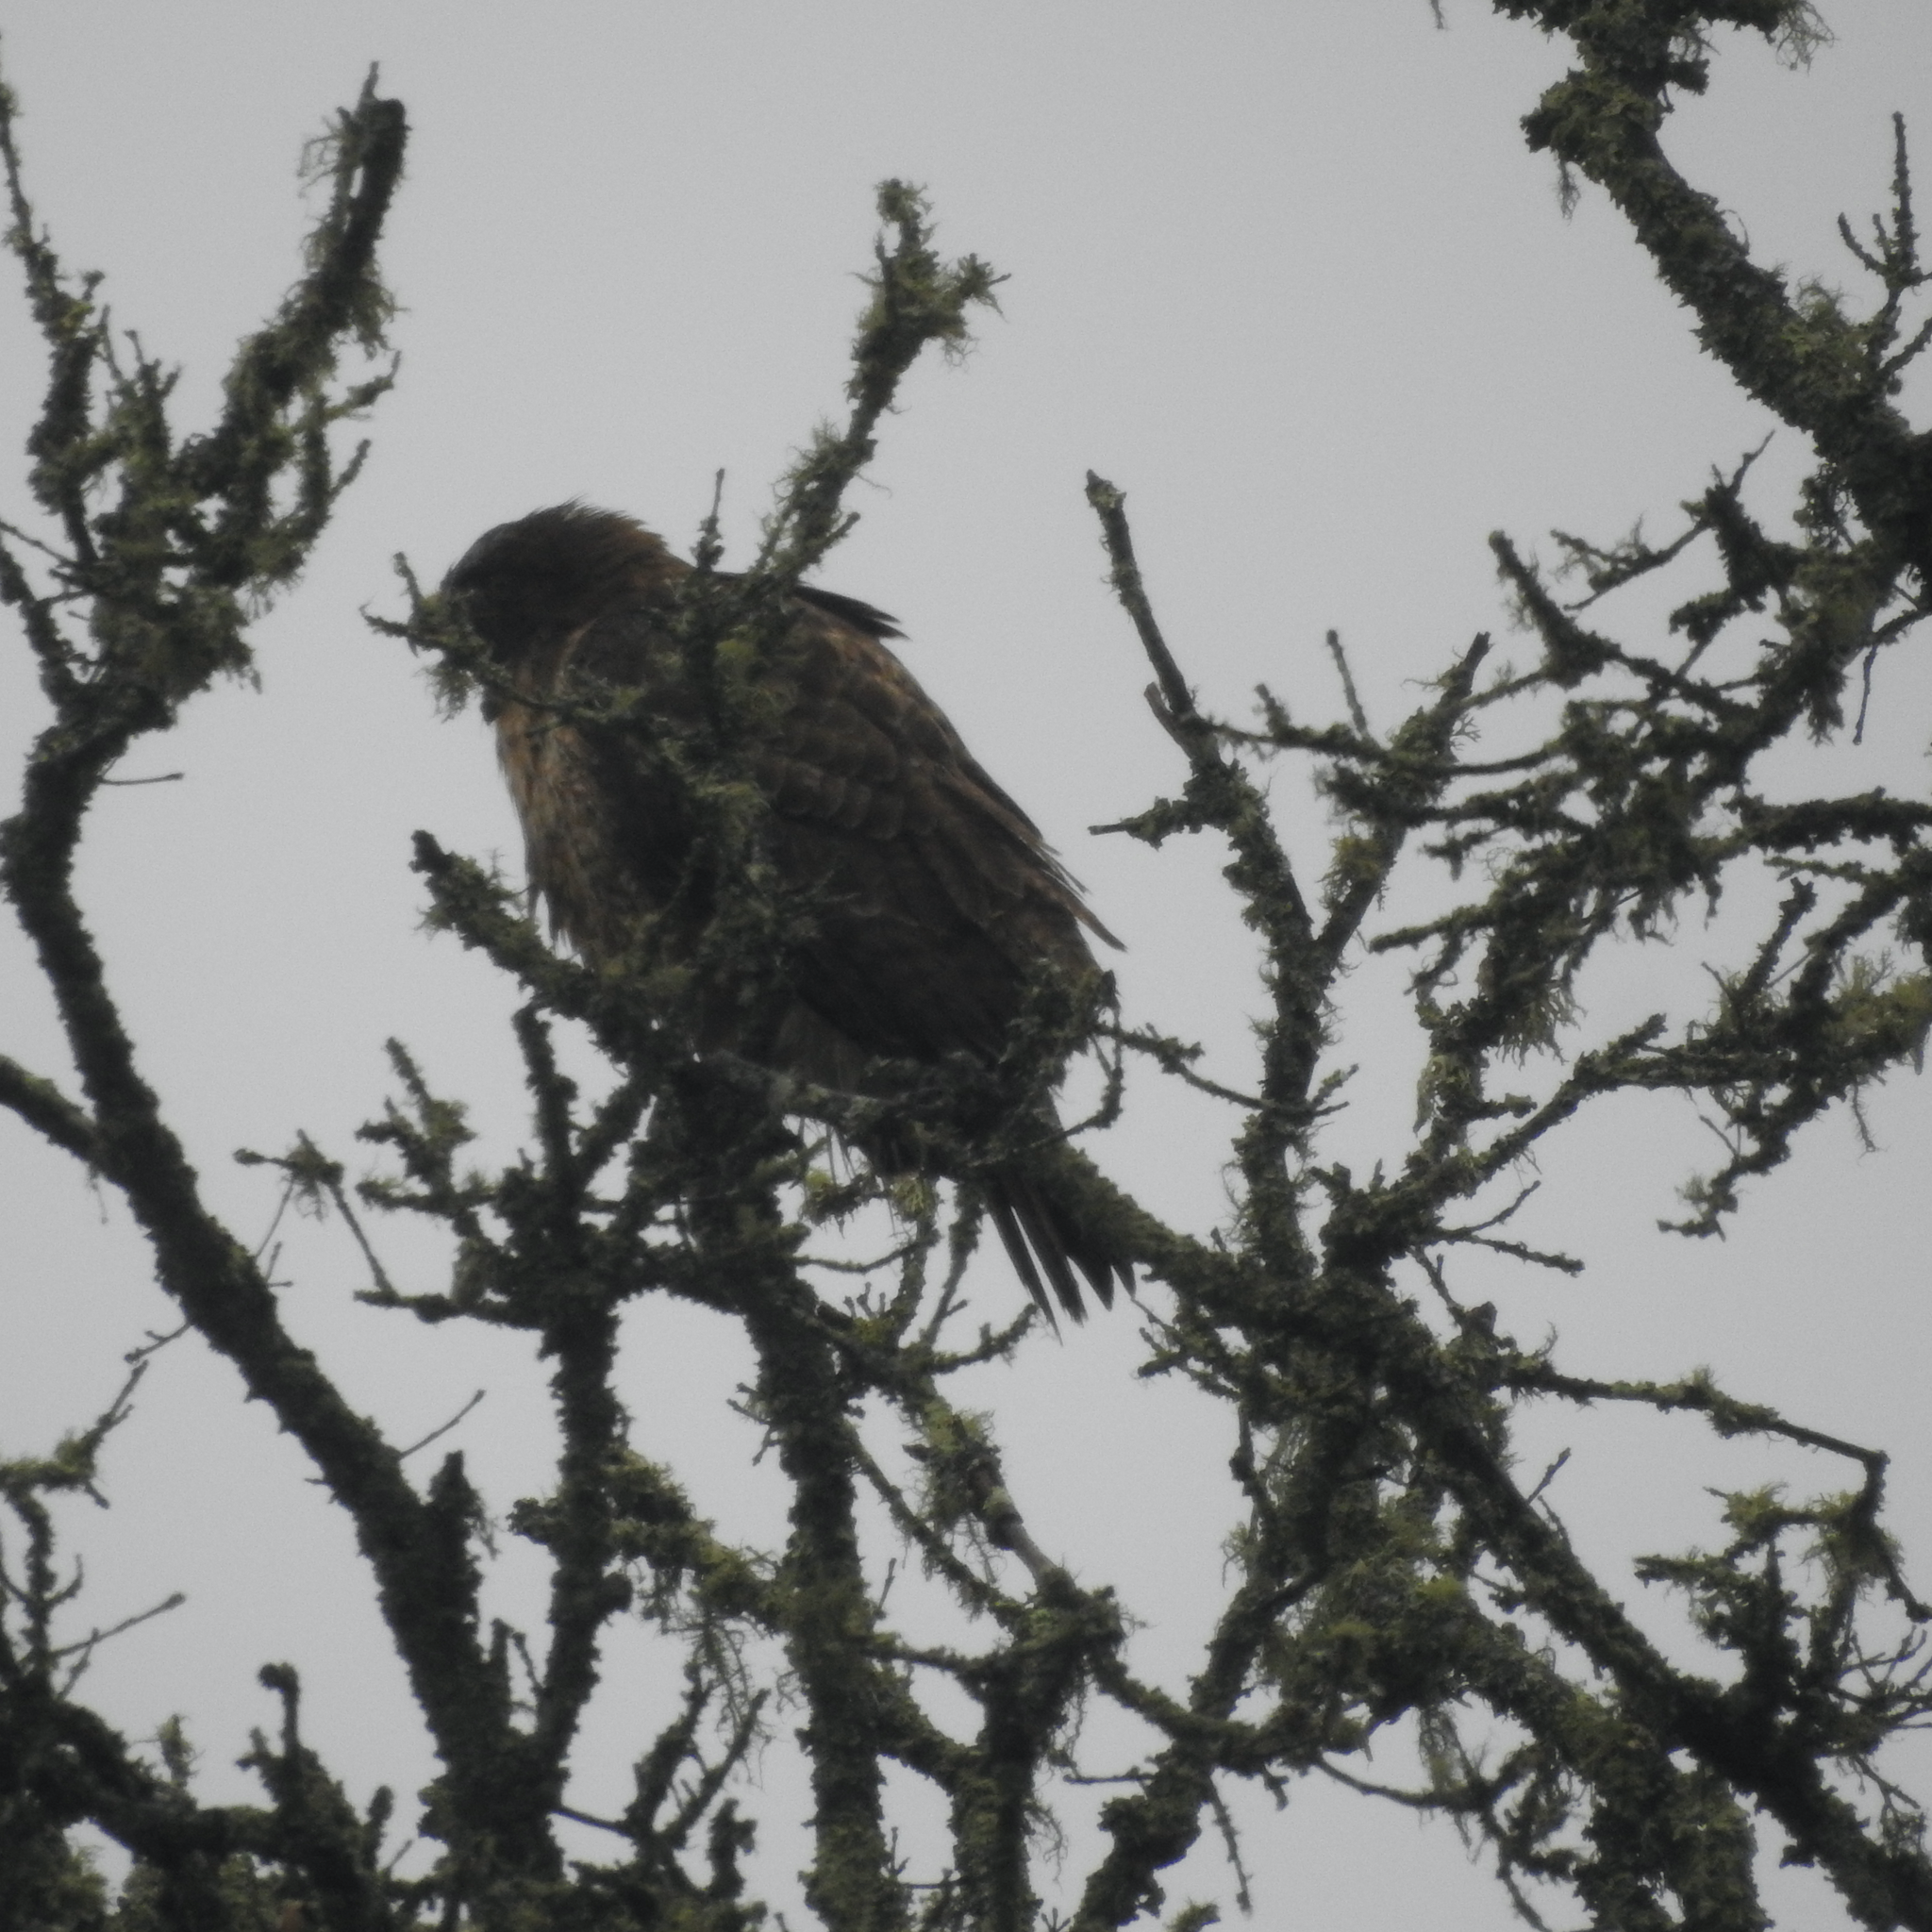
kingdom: Animalia
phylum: Chordata
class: Aves
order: Accipitriformes
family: Accipitridae
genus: Buteo
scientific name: Buteo jamaicensis
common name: Red-tailed hawk
